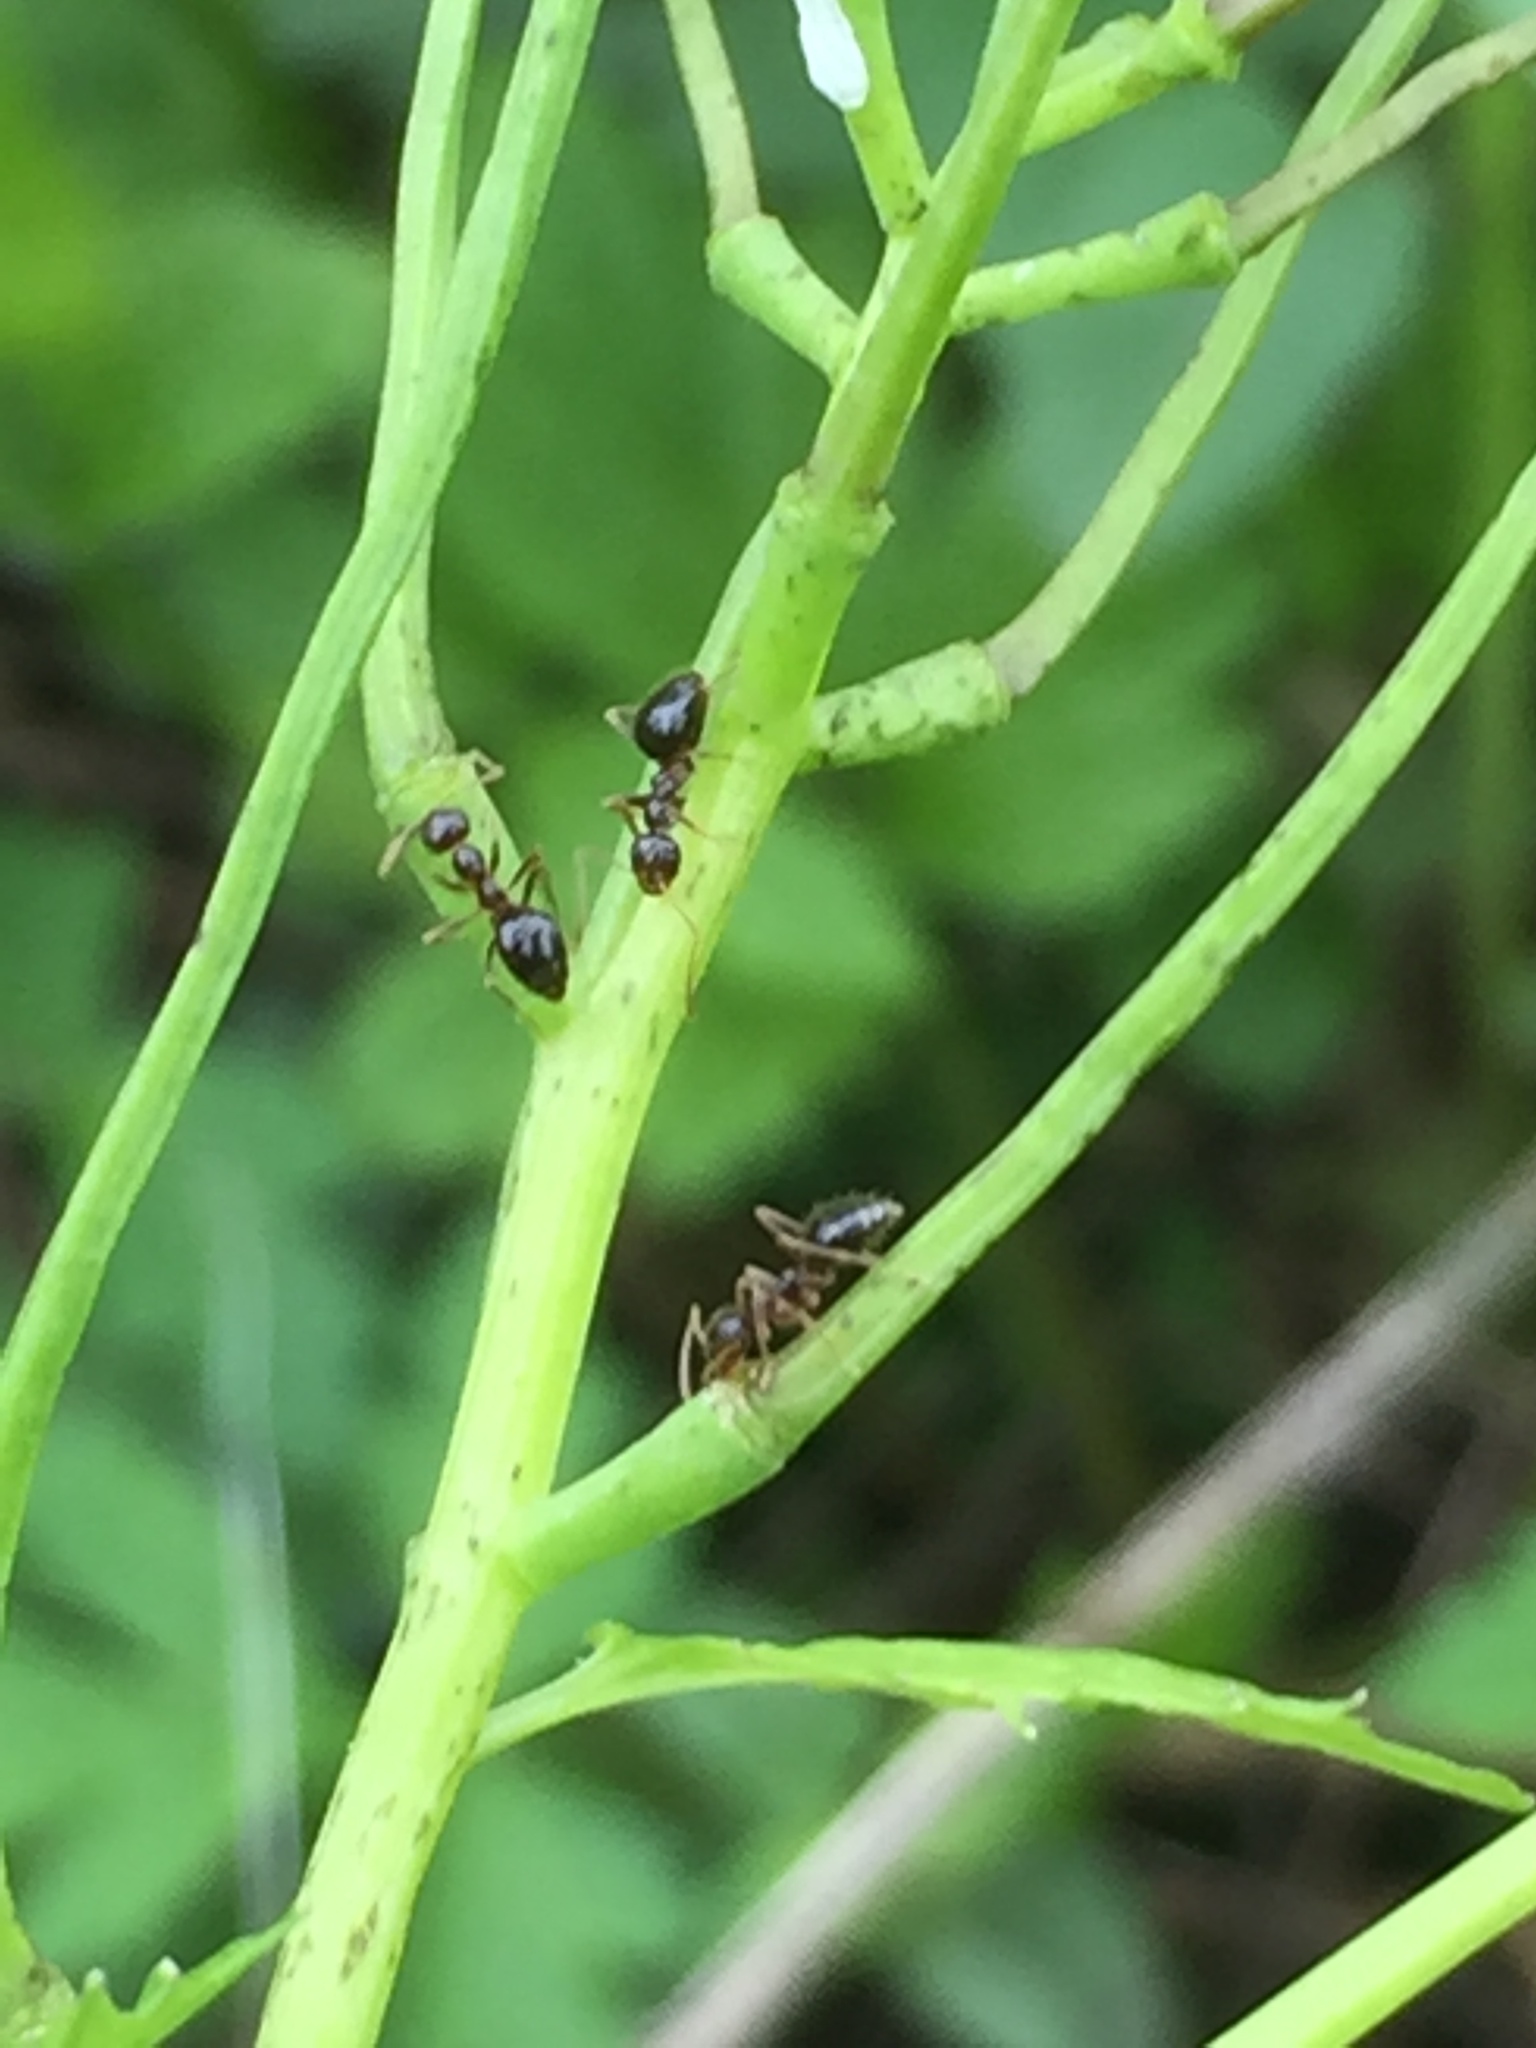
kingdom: Animalia
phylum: Arthropoda
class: Insecta
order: Hymenoptera
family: Formicidae
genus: Prenolepis
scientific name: Prenolepis imparis
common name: Small honey ant
